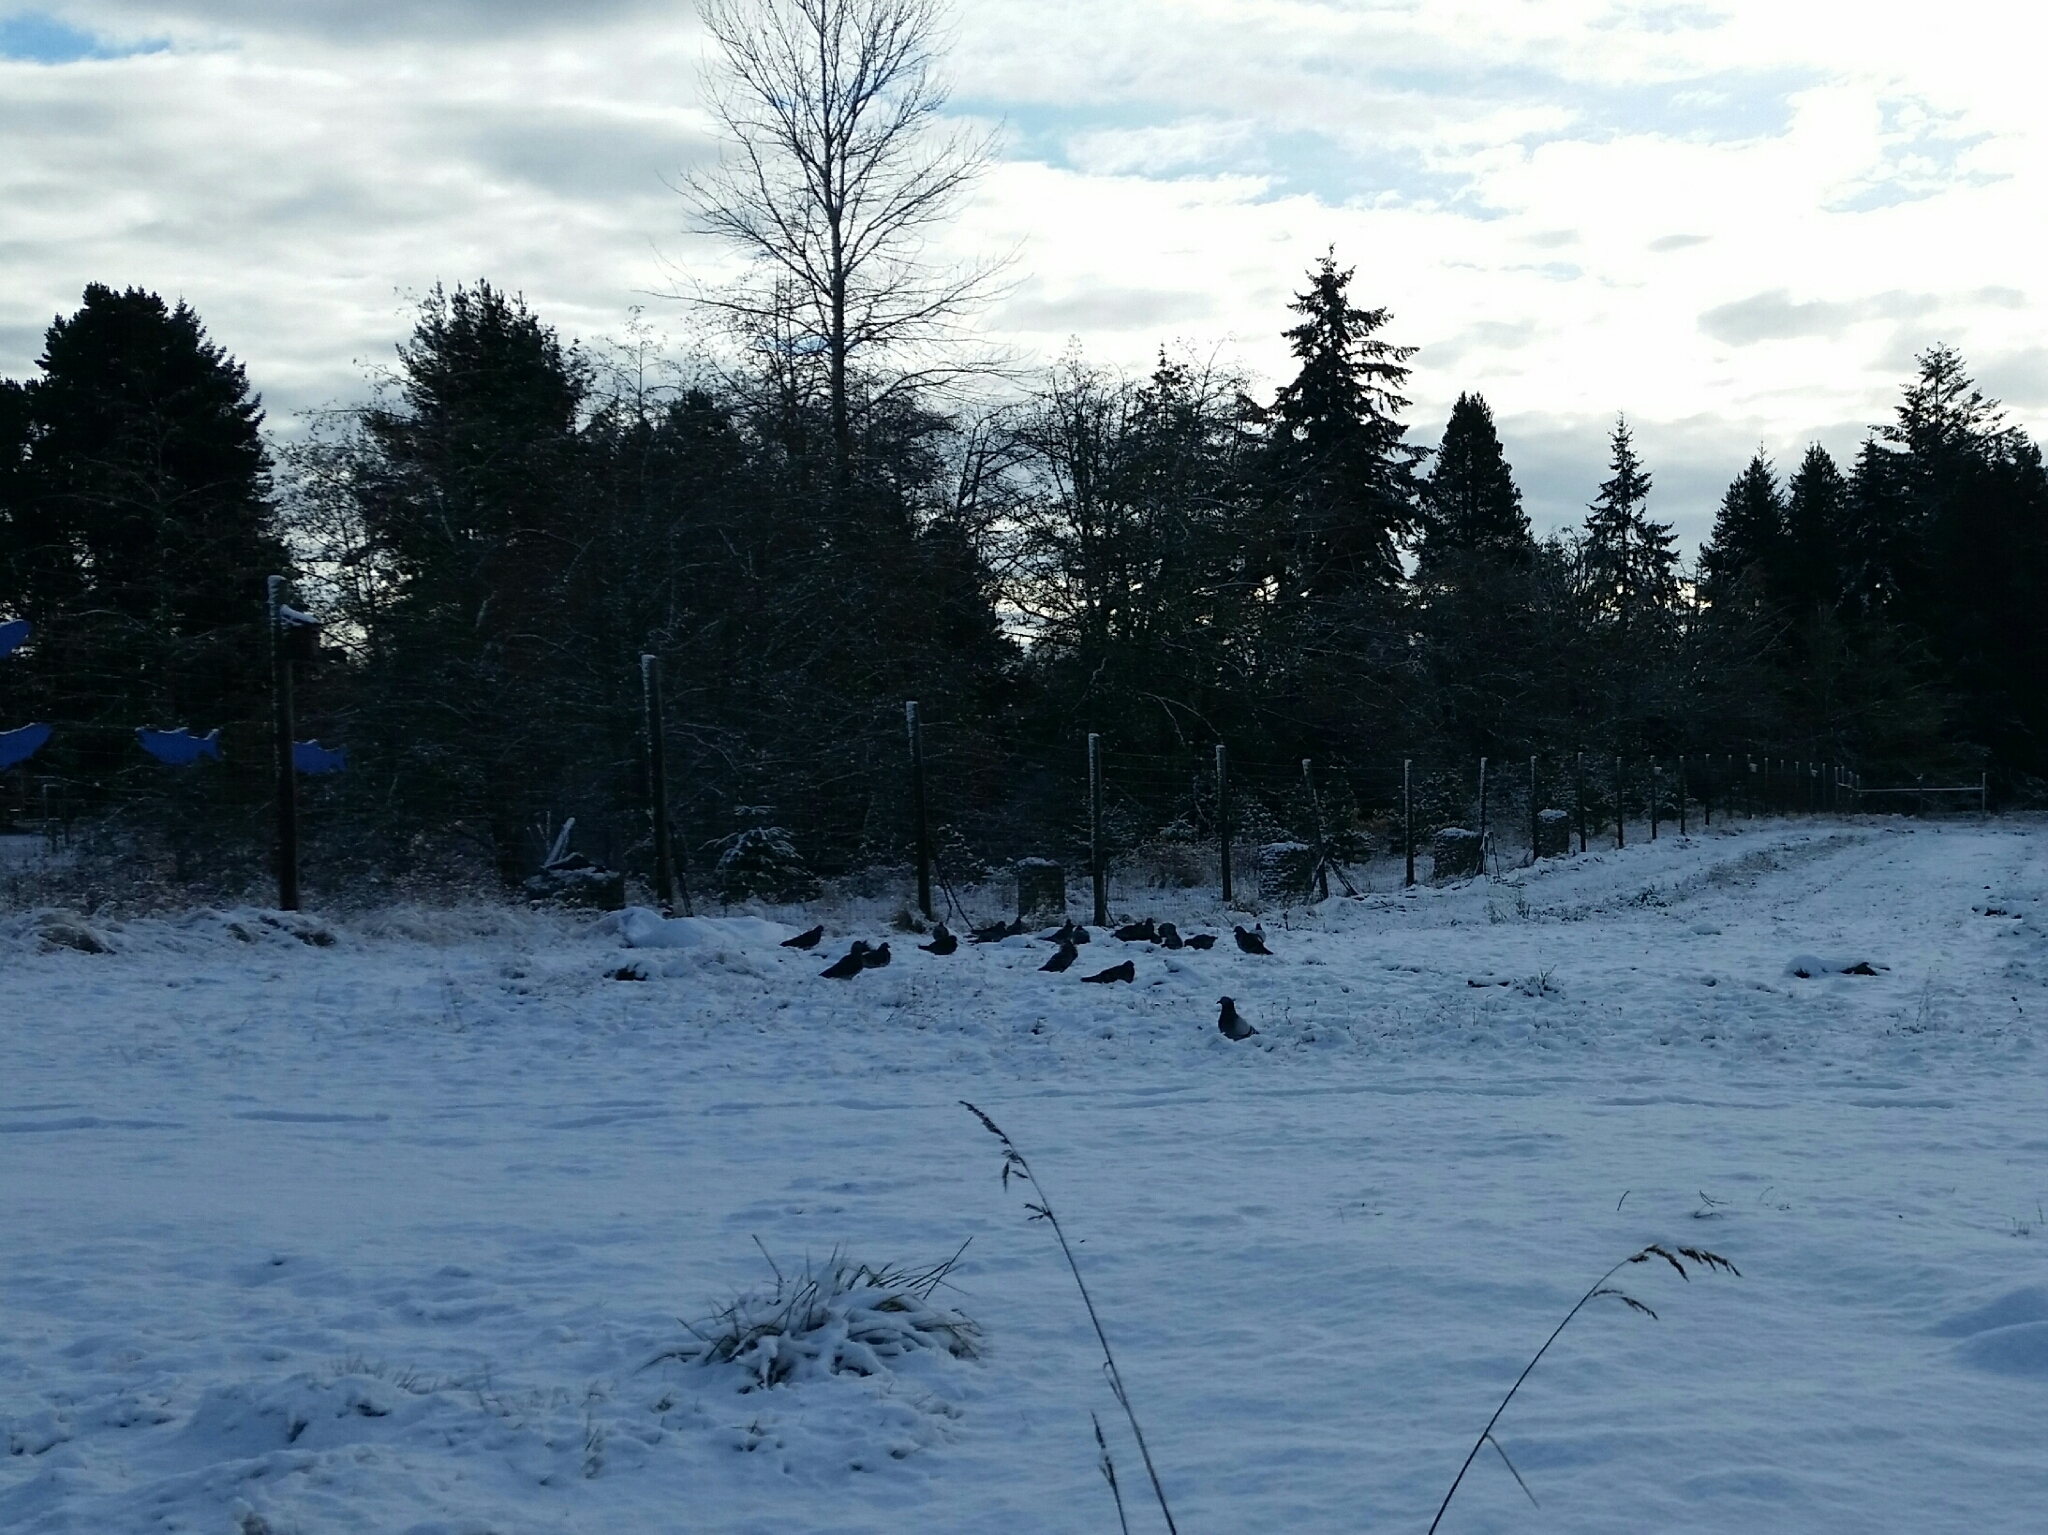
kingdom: Animalia
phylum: Chordata
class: Aves
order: Columbiformes
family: Columbidae
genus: Columba
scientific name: Columba livia
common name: Rock pigeon
